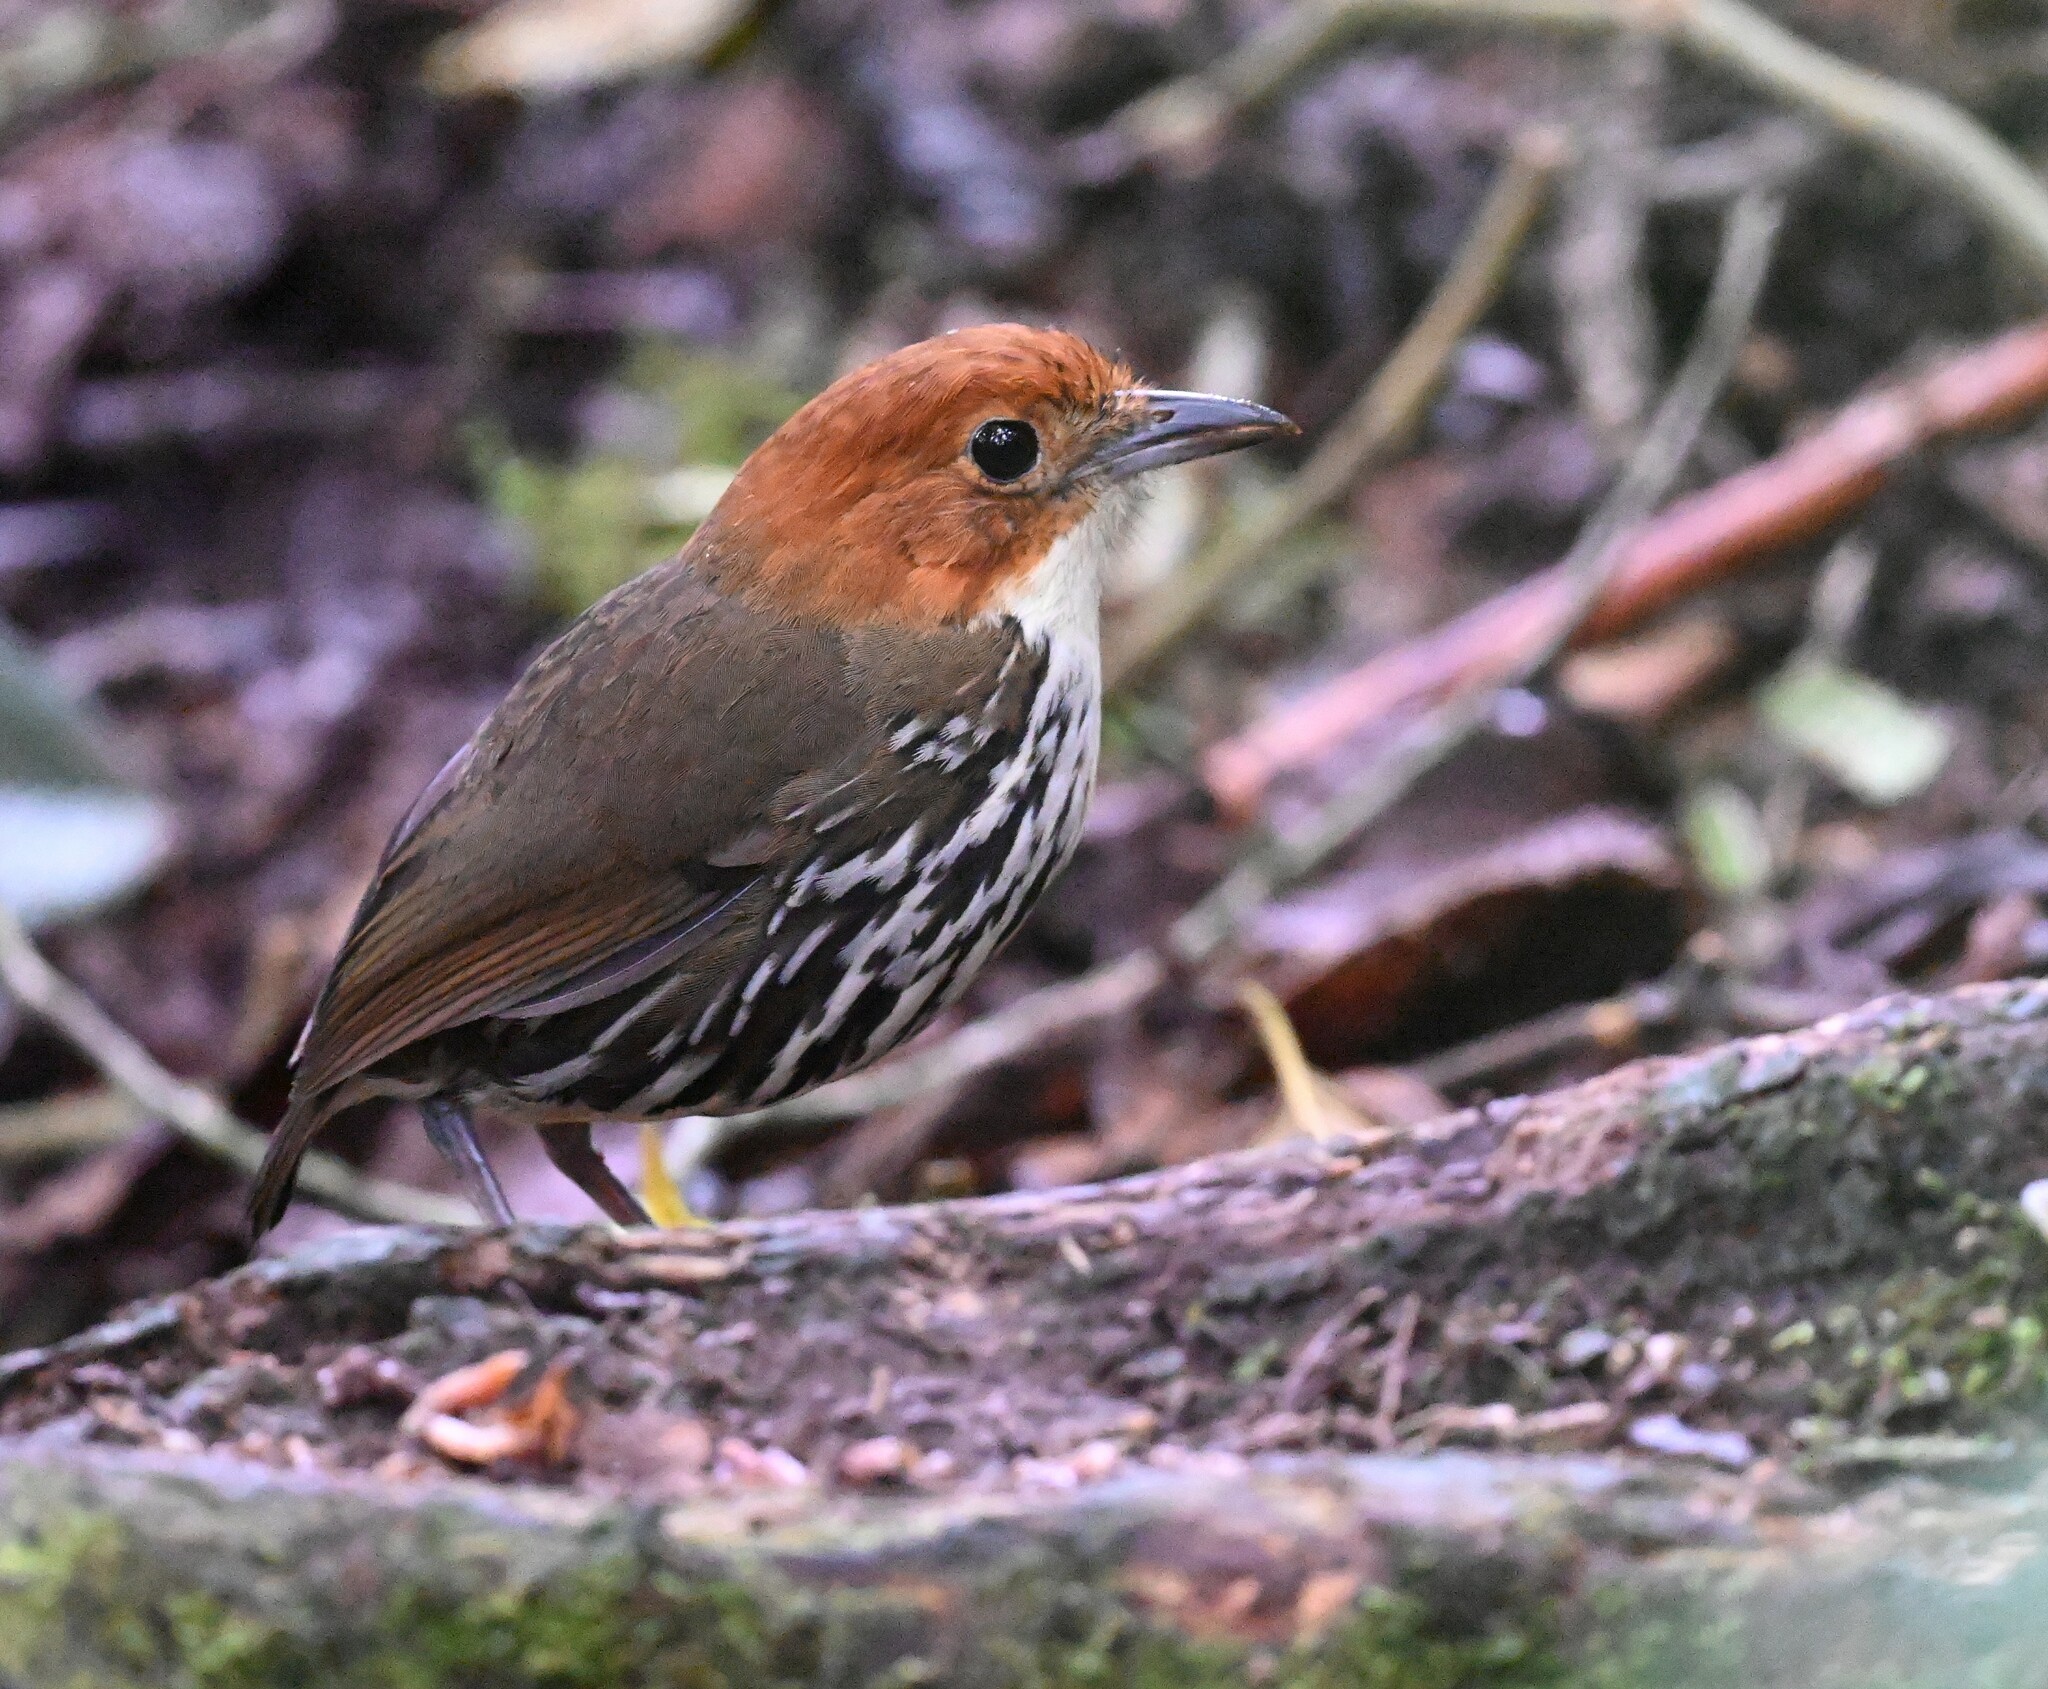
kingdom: Animalia
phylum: Chordata
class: Aves
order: Passeriformes
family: Grallariidae
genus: Grallaria
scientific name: Grallaria ruficapilla
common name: Chestnut-crowned antpitta
